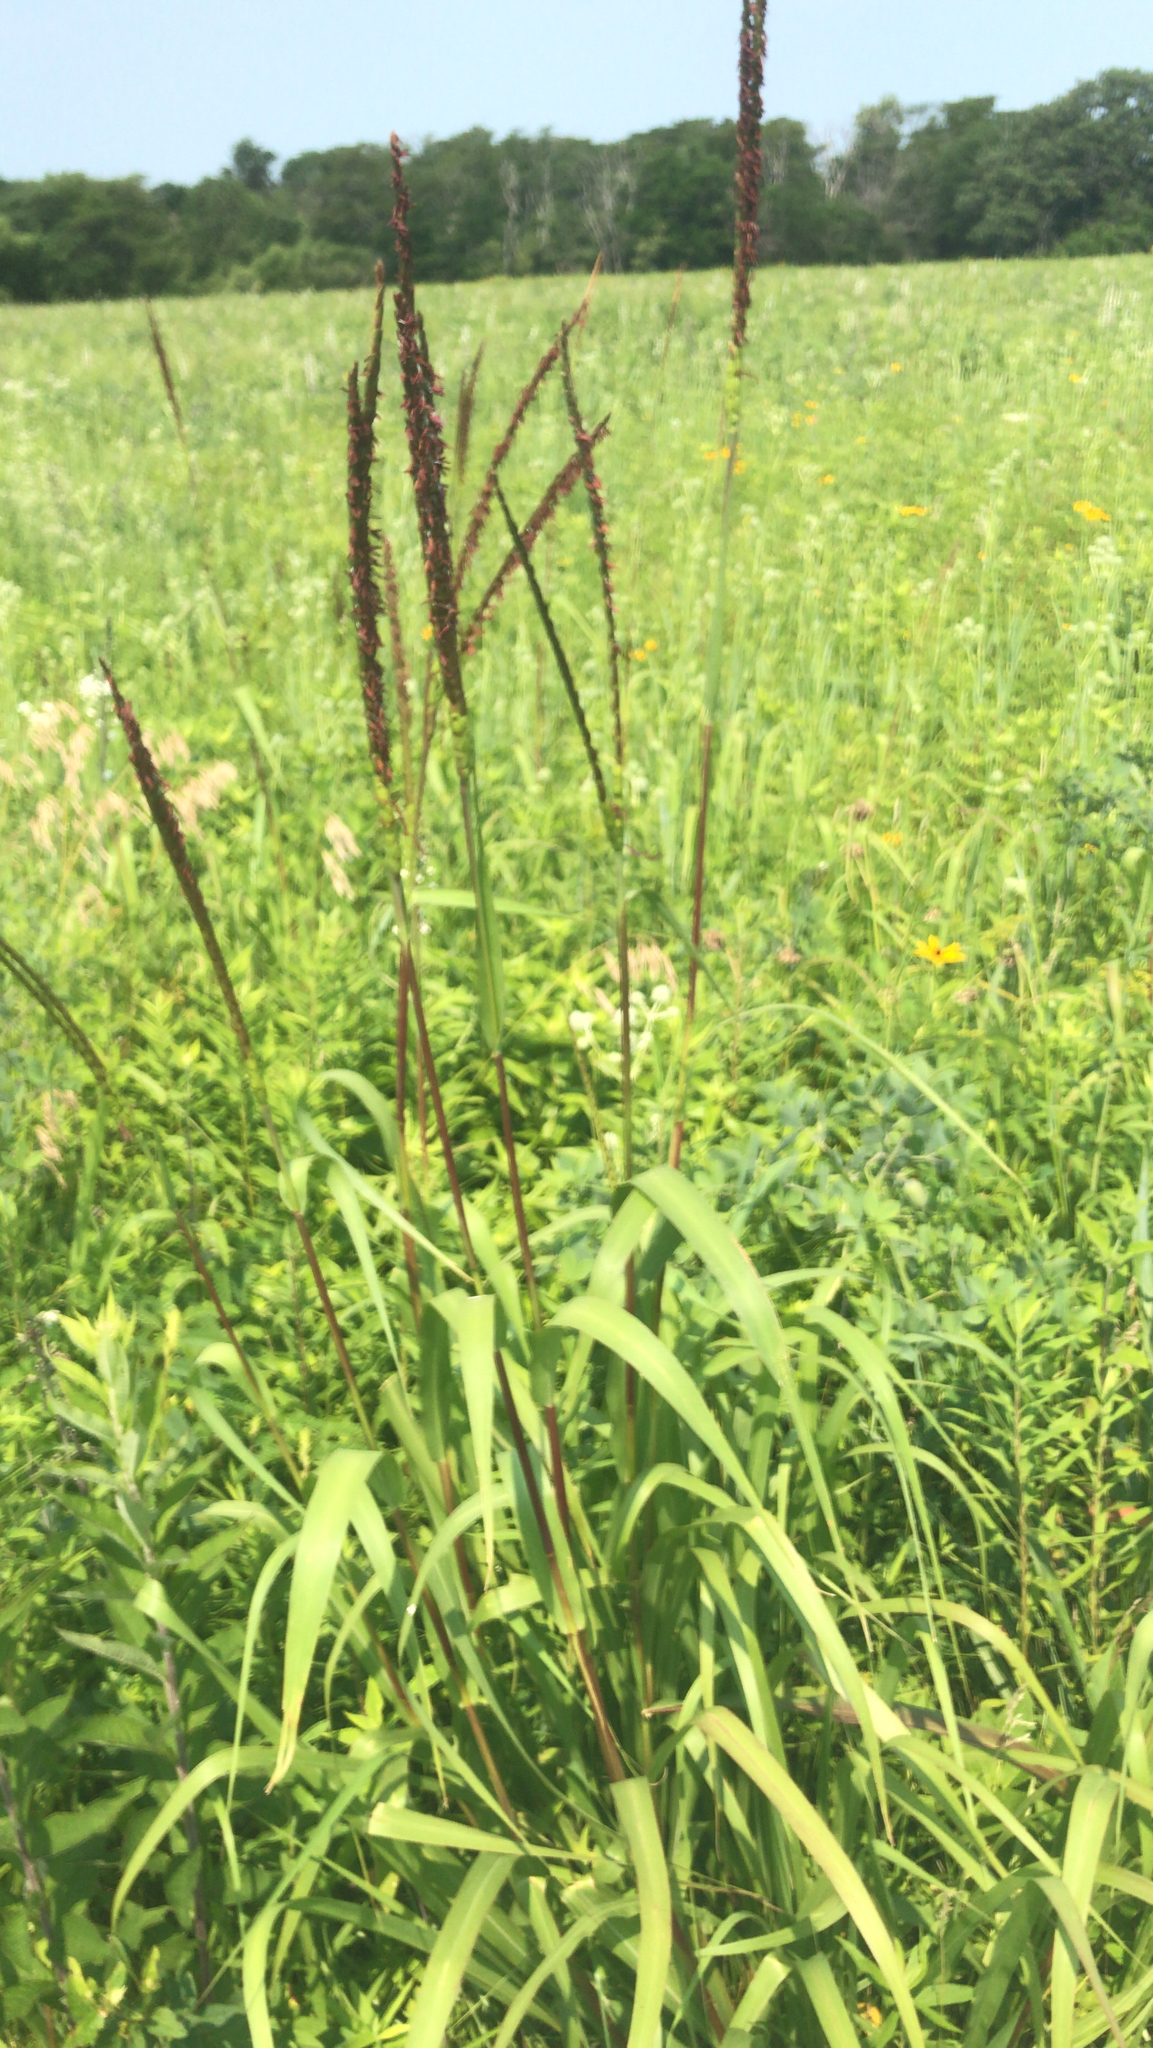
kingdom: Plantae
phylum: Tracheophyta
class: Liliopsida
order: Poales
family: Poaceae
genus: Tripsacum
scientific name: Tripsacum dactyloides
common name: Buffalo-grass
